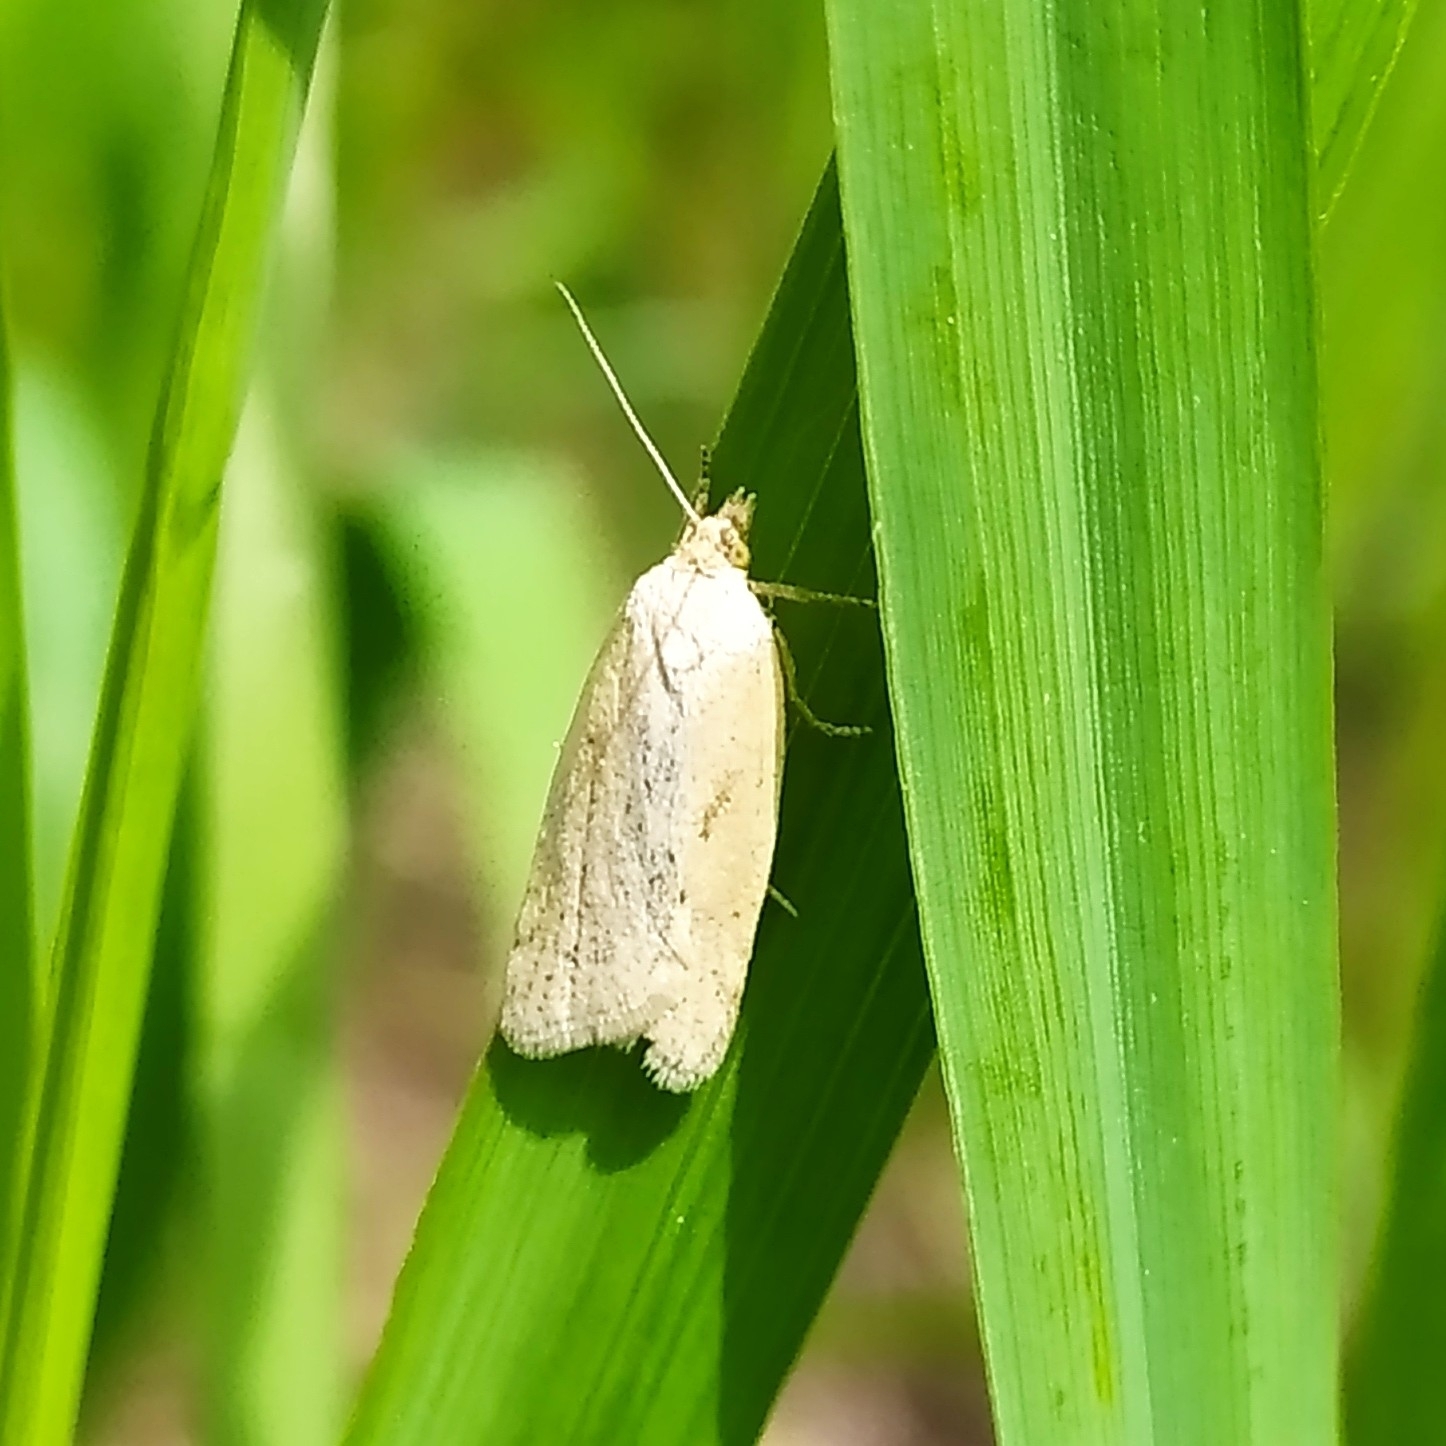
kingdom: Animalia
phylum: Arthropoda
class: Insecta
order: Lepidoptera
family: Tortricidae
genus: Eana
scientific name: Eana osseana
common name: Dotted shade
